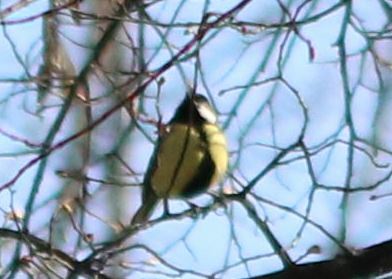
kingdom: Animalia
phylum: Chordata
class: Aves
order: Passeriformes
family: Paridae
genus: Parus
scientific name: Parus major
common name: Great tit
